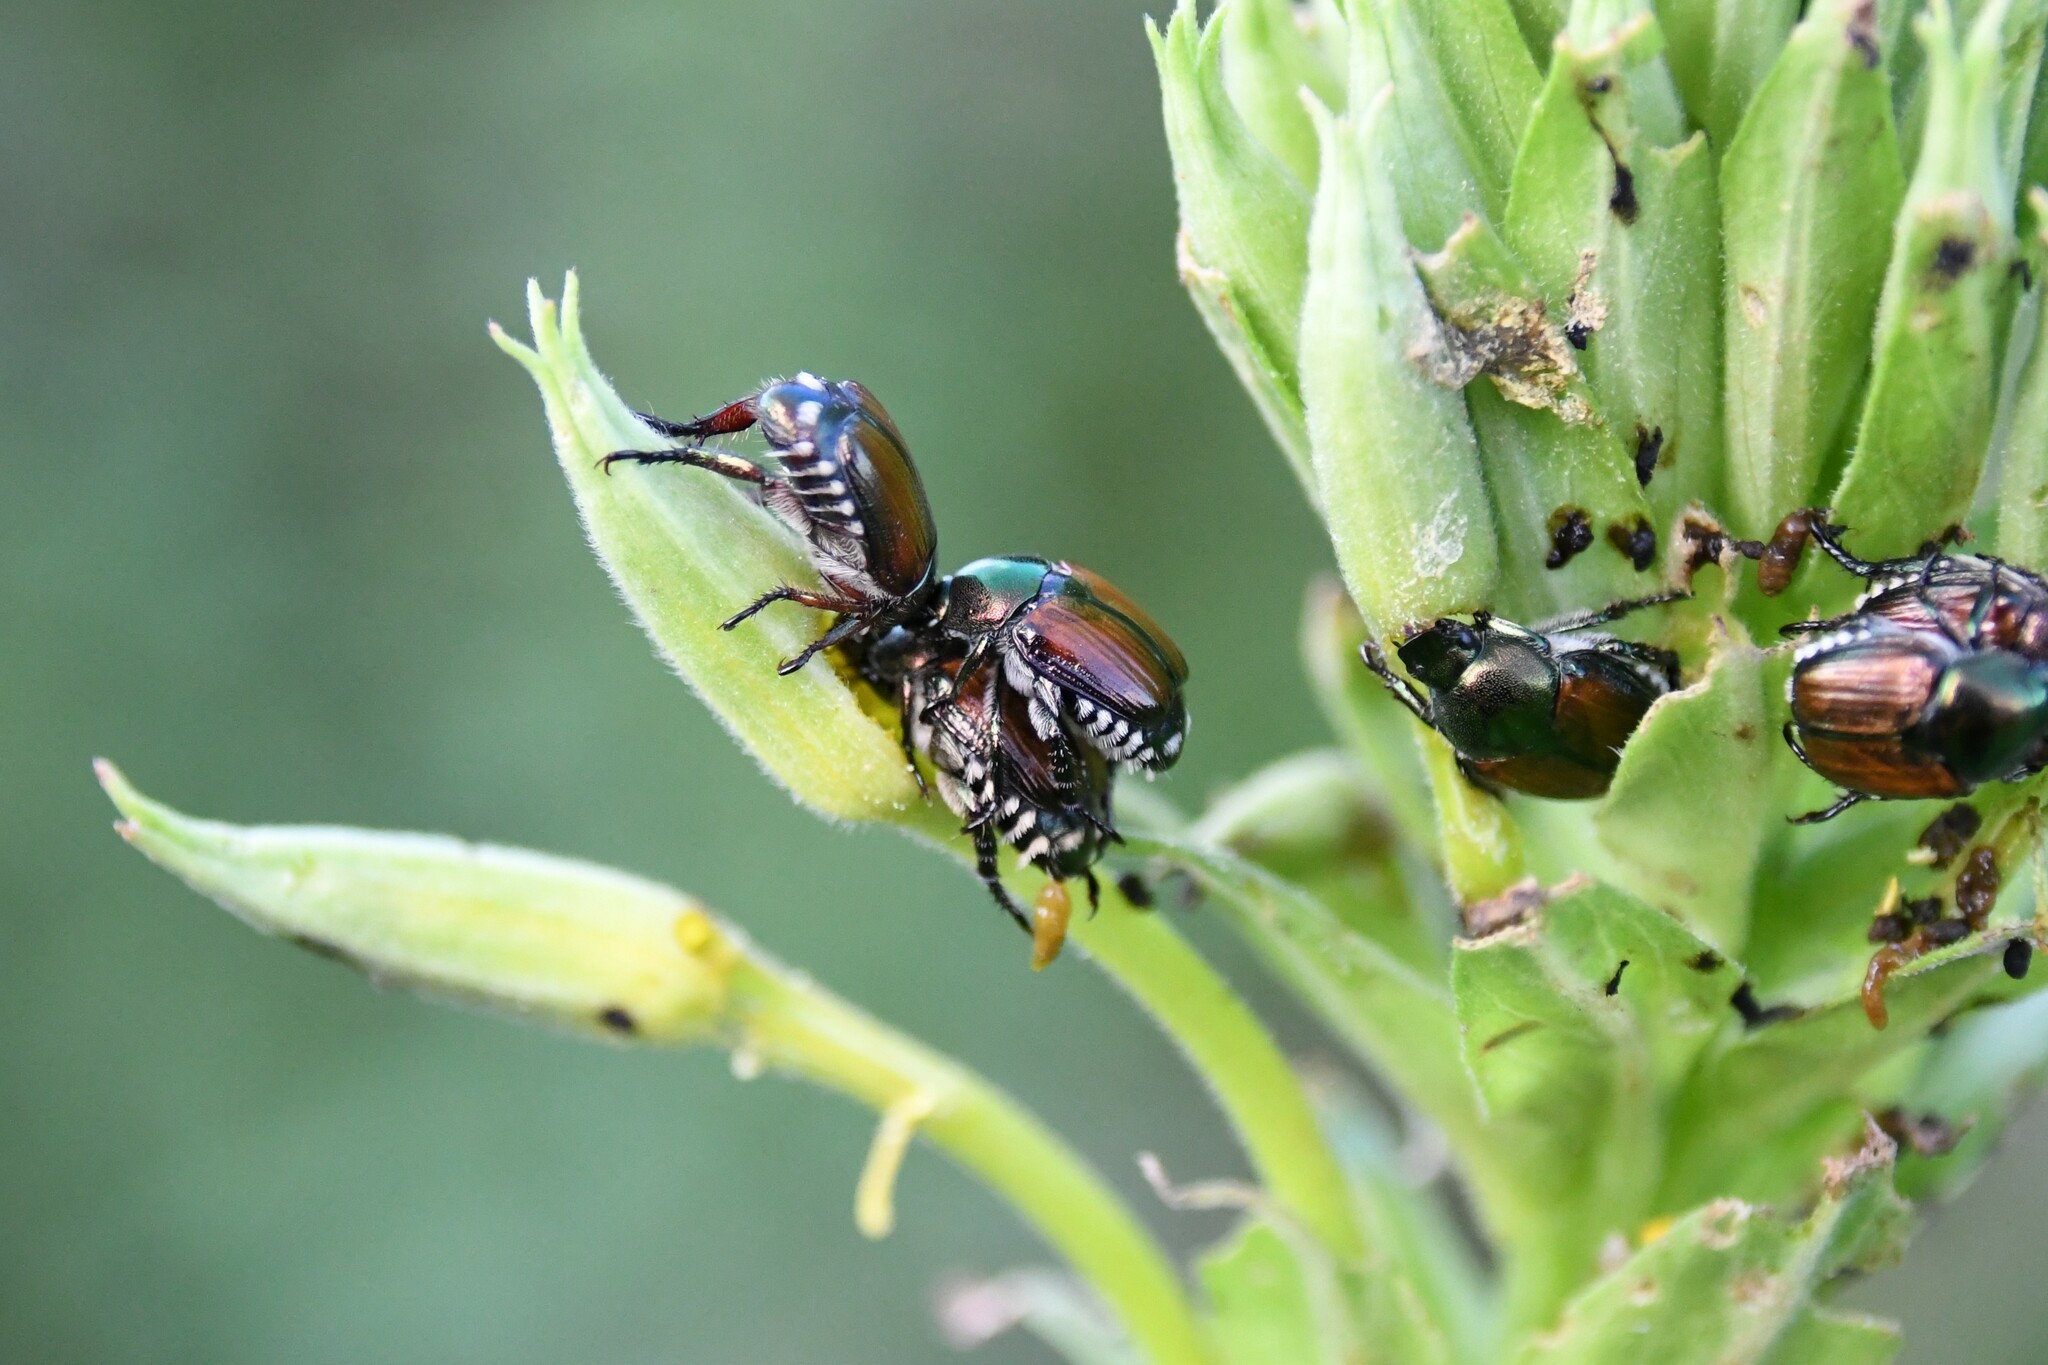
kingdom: Animalia
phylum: Arthropoda
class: Insecta
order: Coleoptera
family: Scarabaeidae
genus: Popillia
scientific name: Popillia japonica
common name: Japanese beetle
